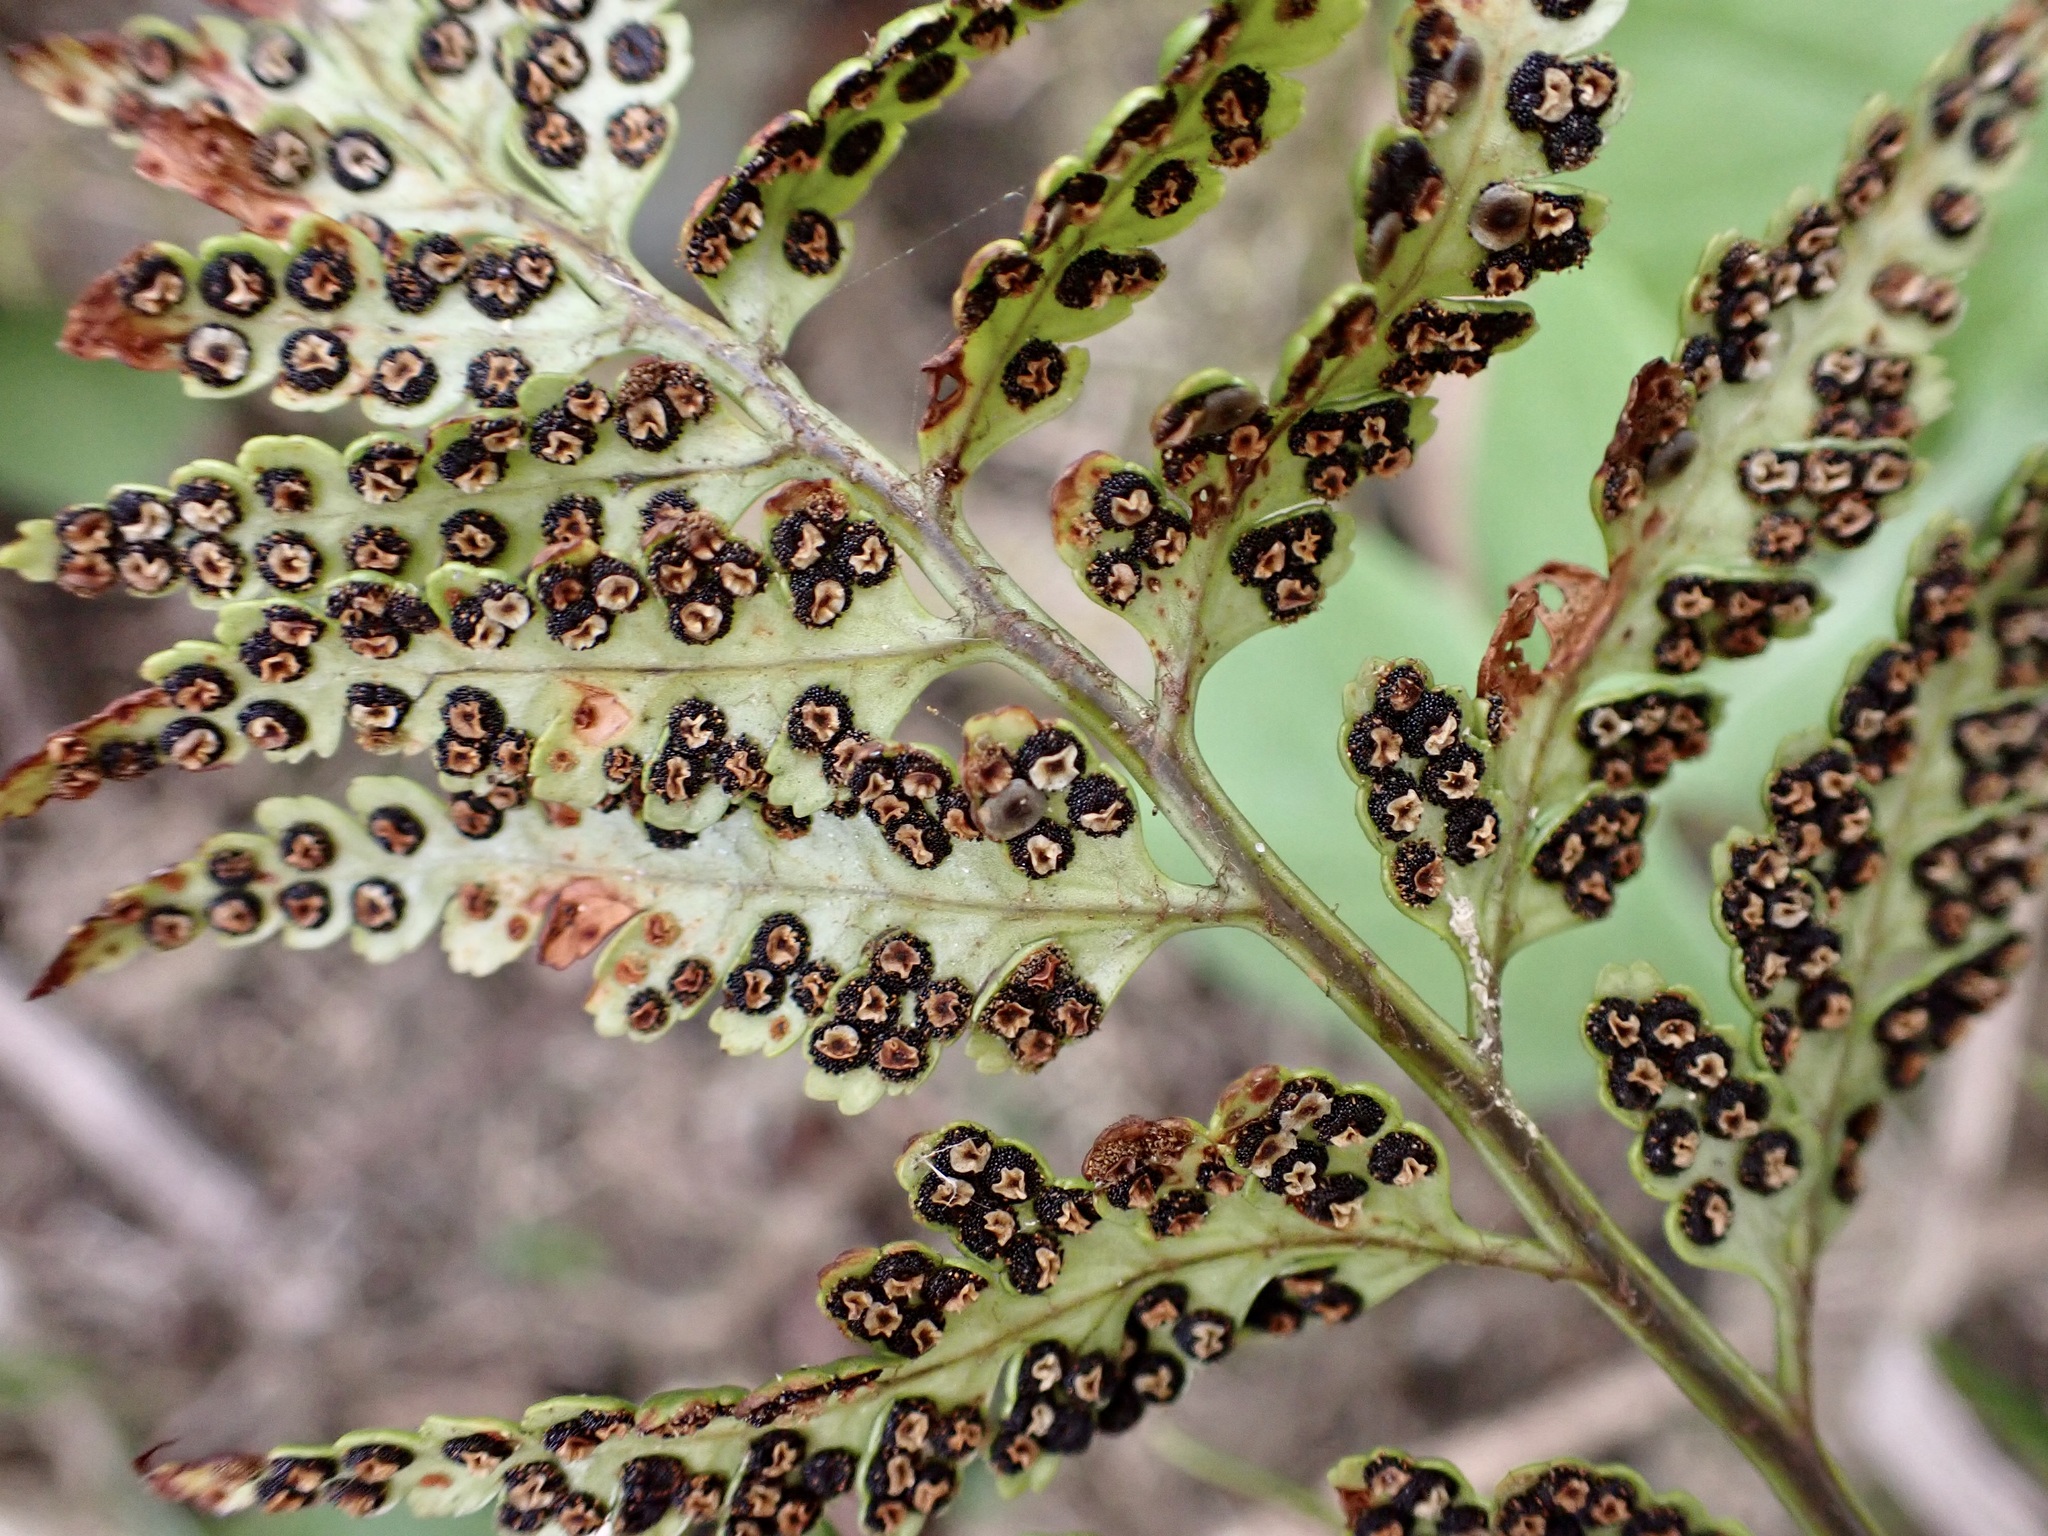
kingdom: Plantae
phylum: Tracheophyta
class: Polypodiopsida
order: Polypodiales
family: Dryopteridaceae
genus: Rumohra
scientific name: Rumohra adiantiformis
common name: Leather fern
